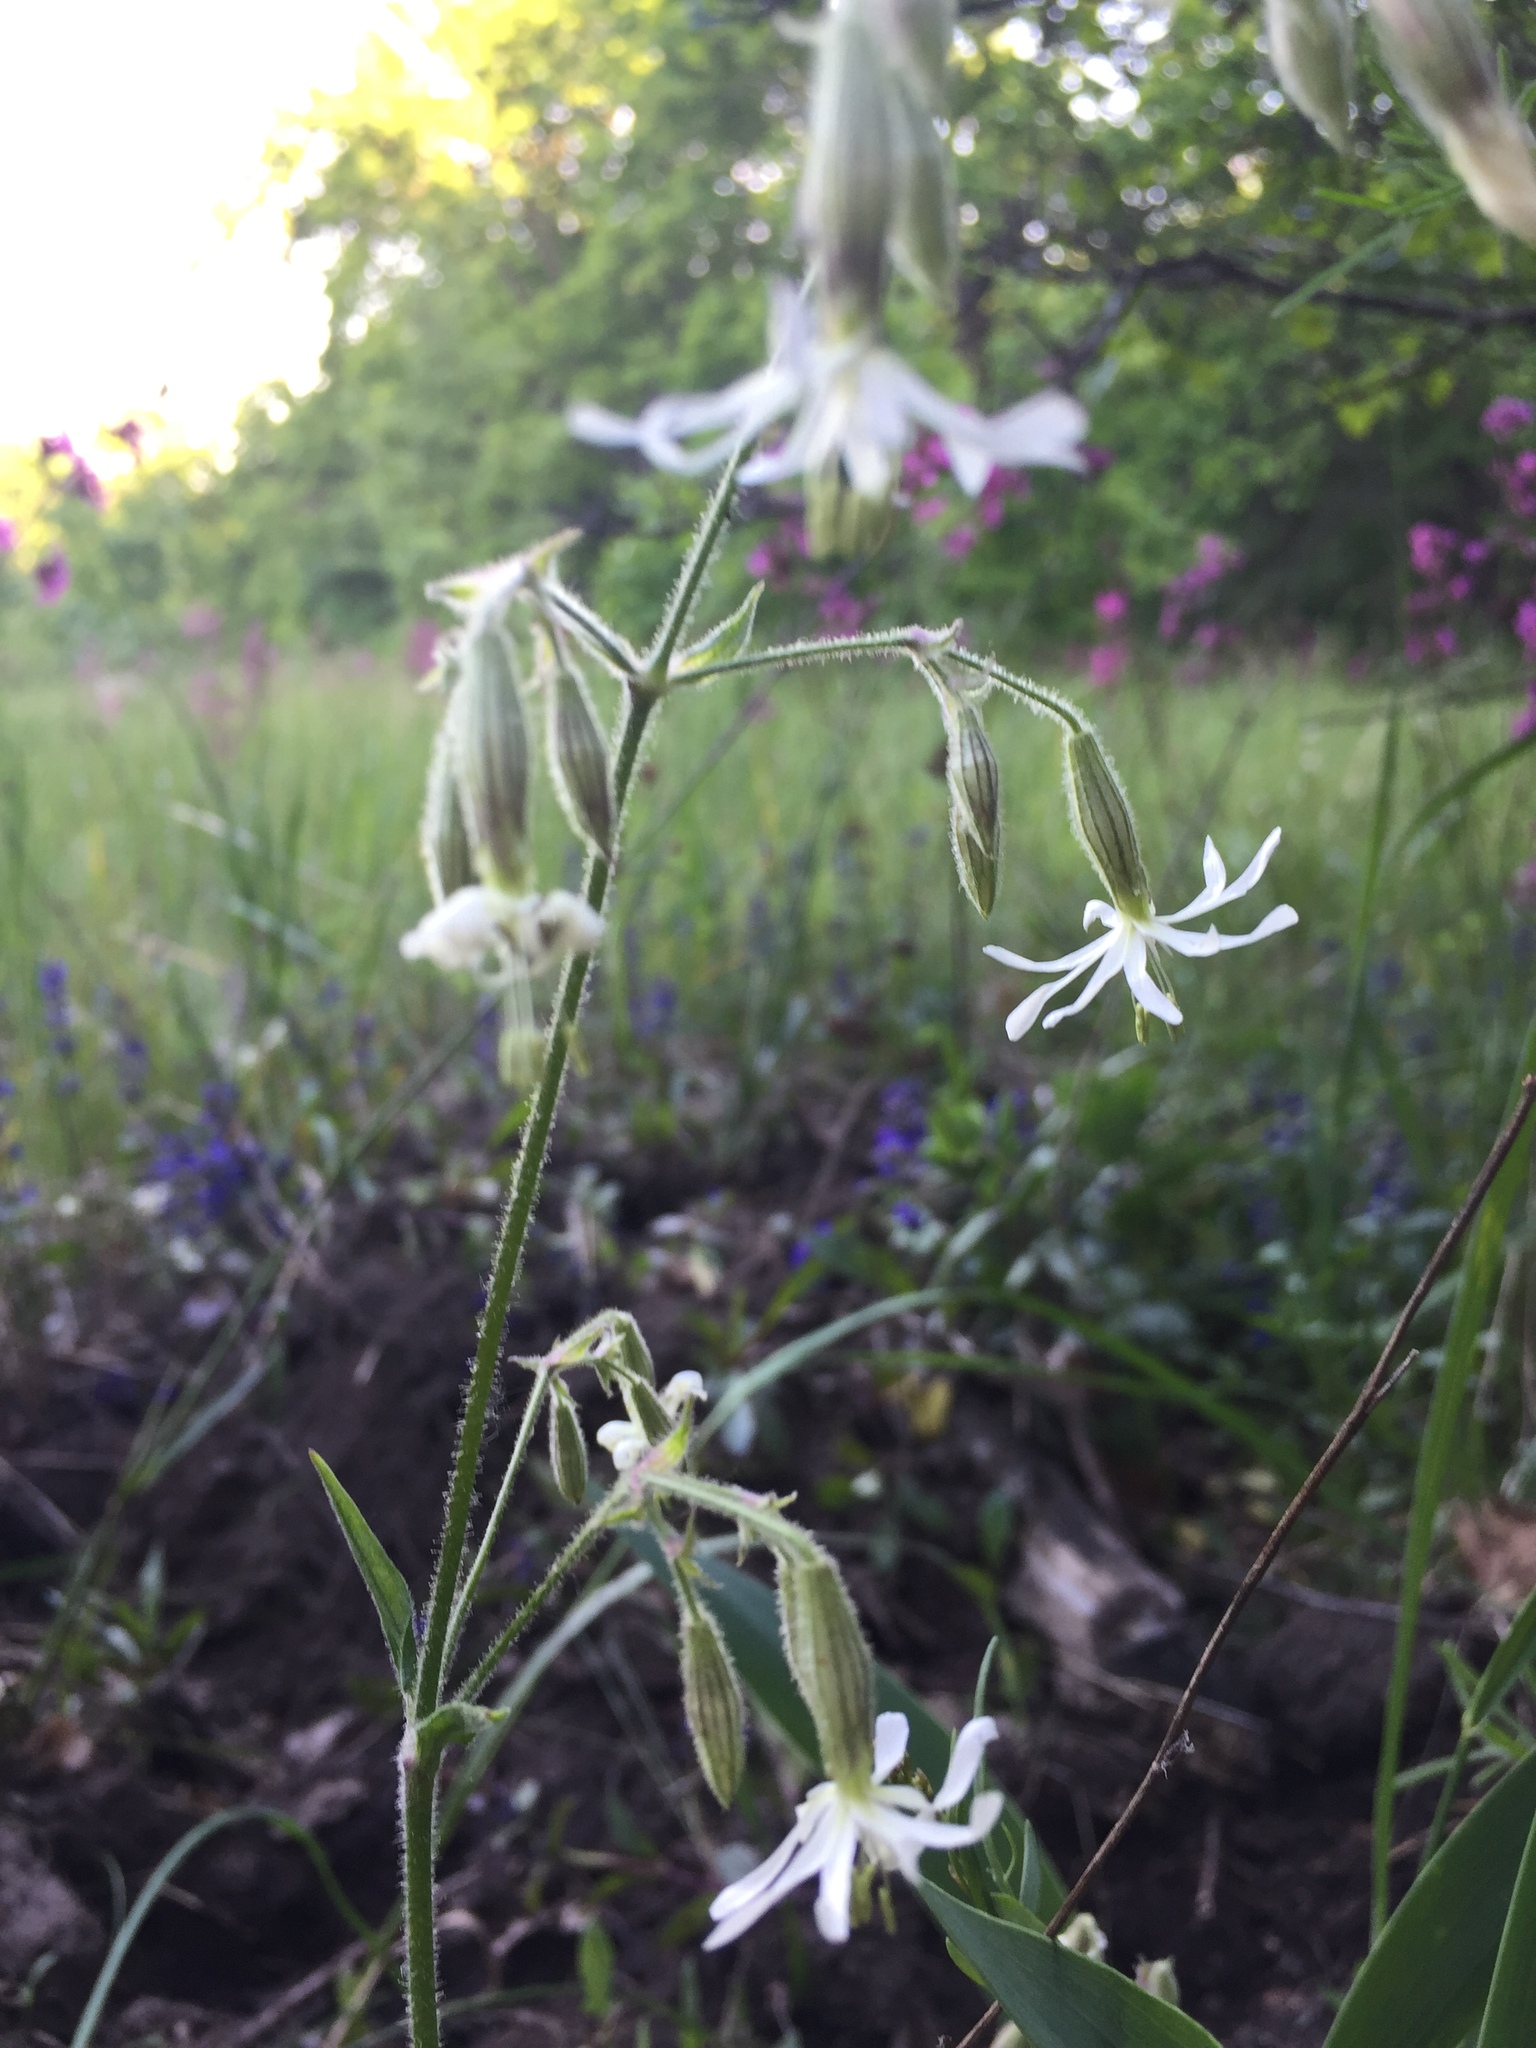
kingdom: Plantae
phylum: Tracheophyta
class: Magnoliopsida
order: Caryophyllales
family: Caryophyllaceae
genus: Silene
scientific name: Silene nutans
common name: Nottingham catchfly
